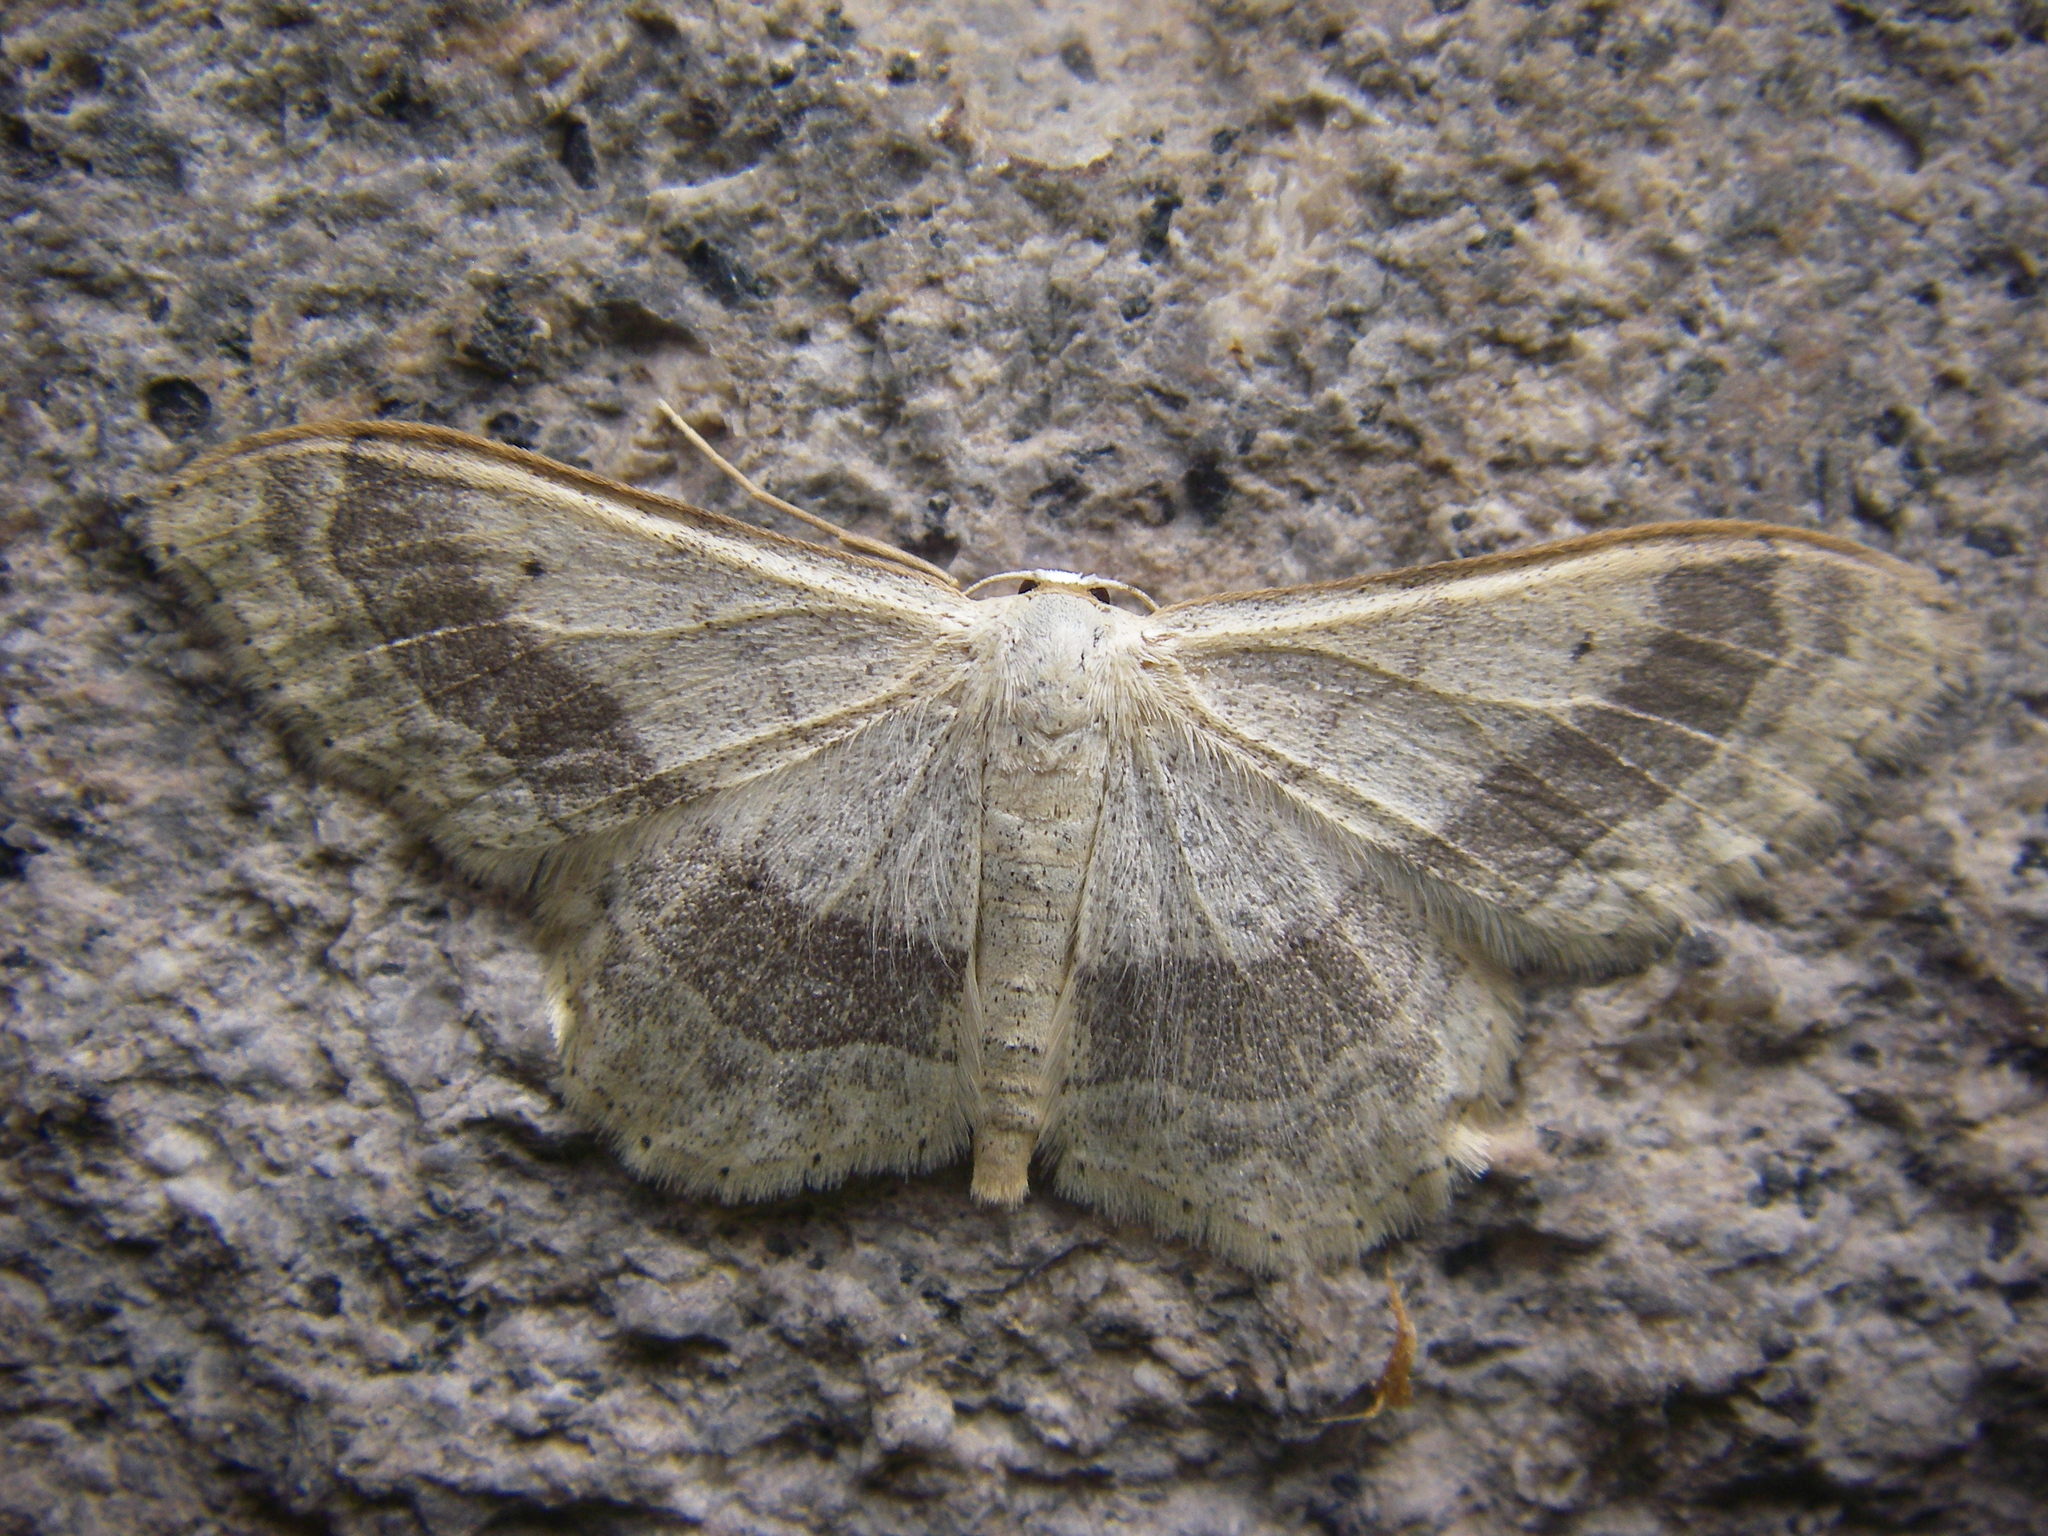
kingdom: Animalia
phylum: Arthropoda
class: Insecta
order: Lepidoptera
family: Geometridae
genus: Idaea
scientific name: Idaea aversata
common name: Riband wave
